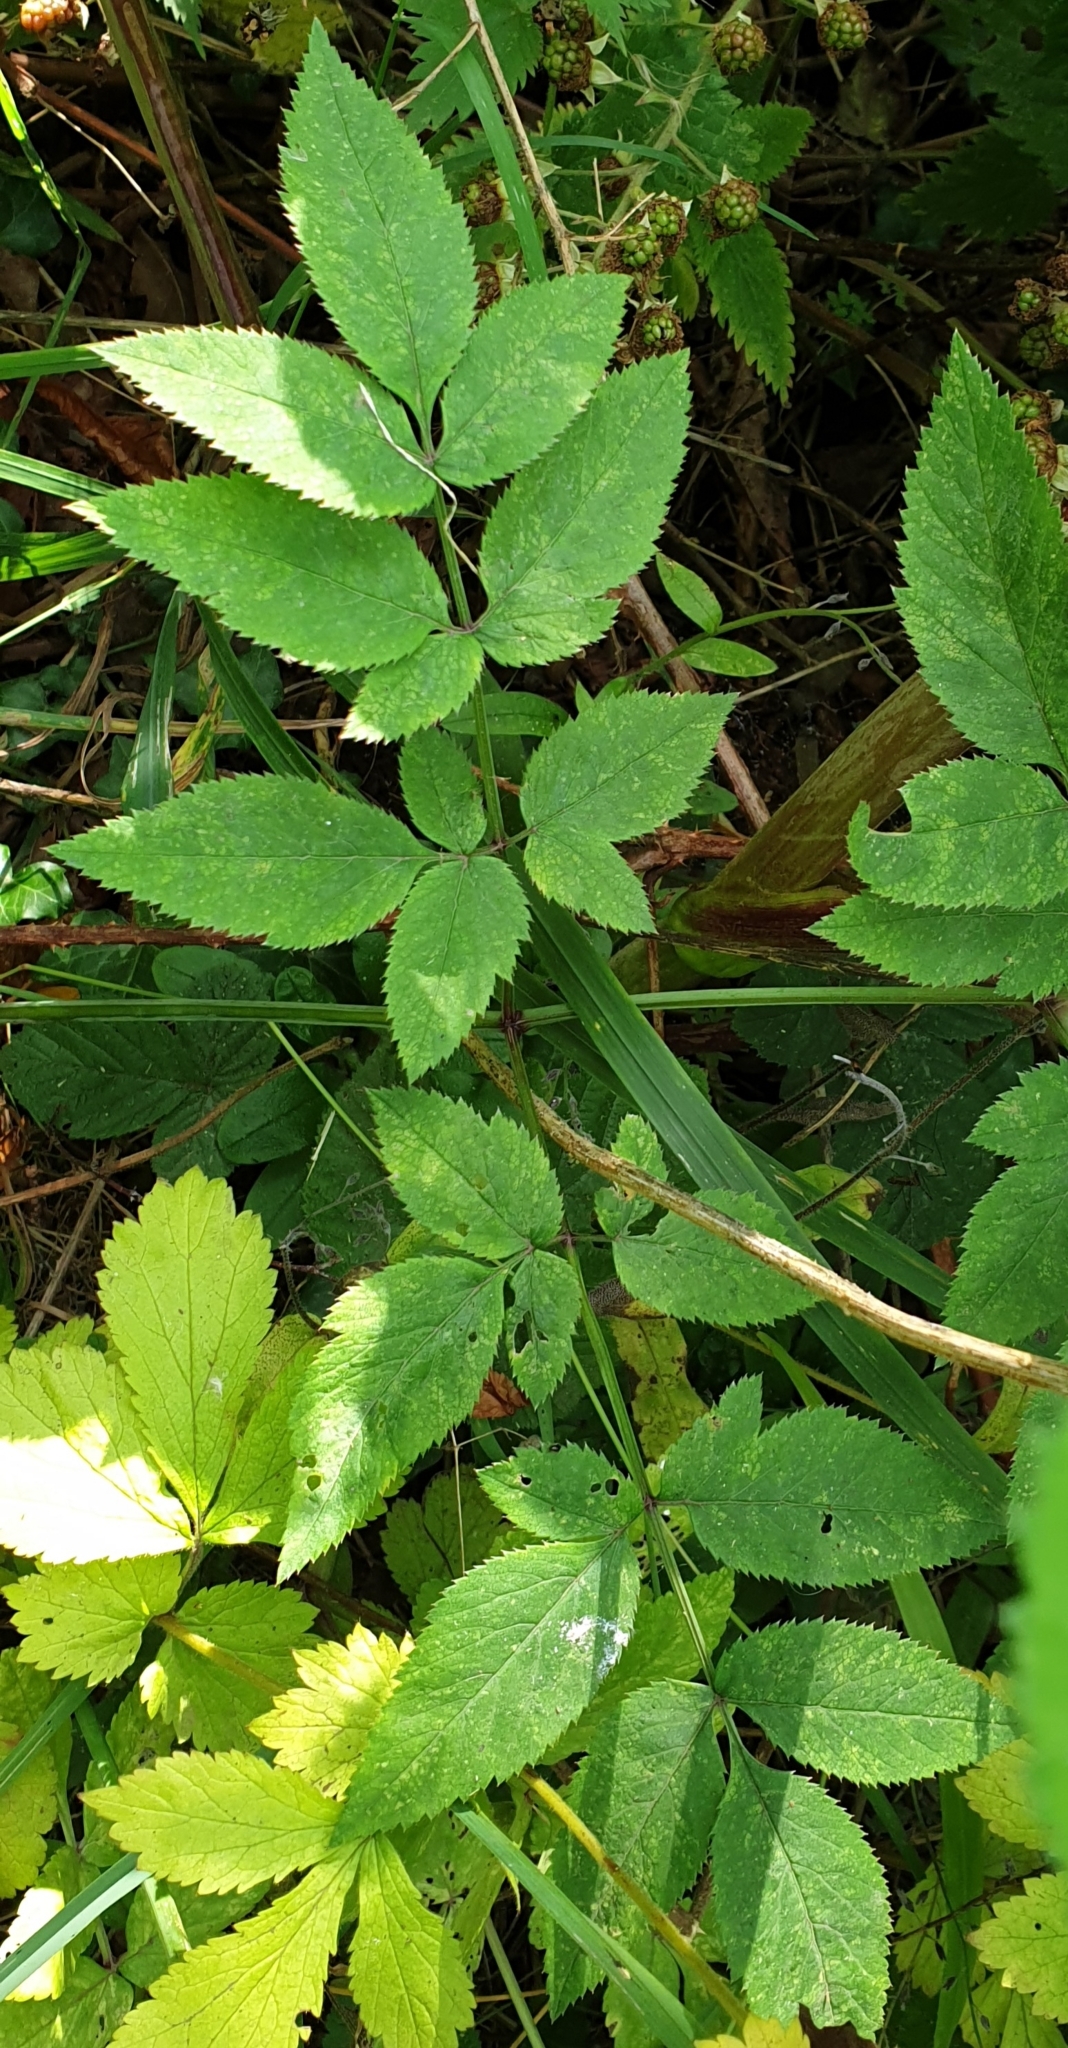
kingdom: Plantae
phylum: Tracheophyta
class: Magnoliopsida
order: Apiales
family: Apiaceae
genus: Angelica
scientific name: Angelica sylvestris
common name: Wild angelica
